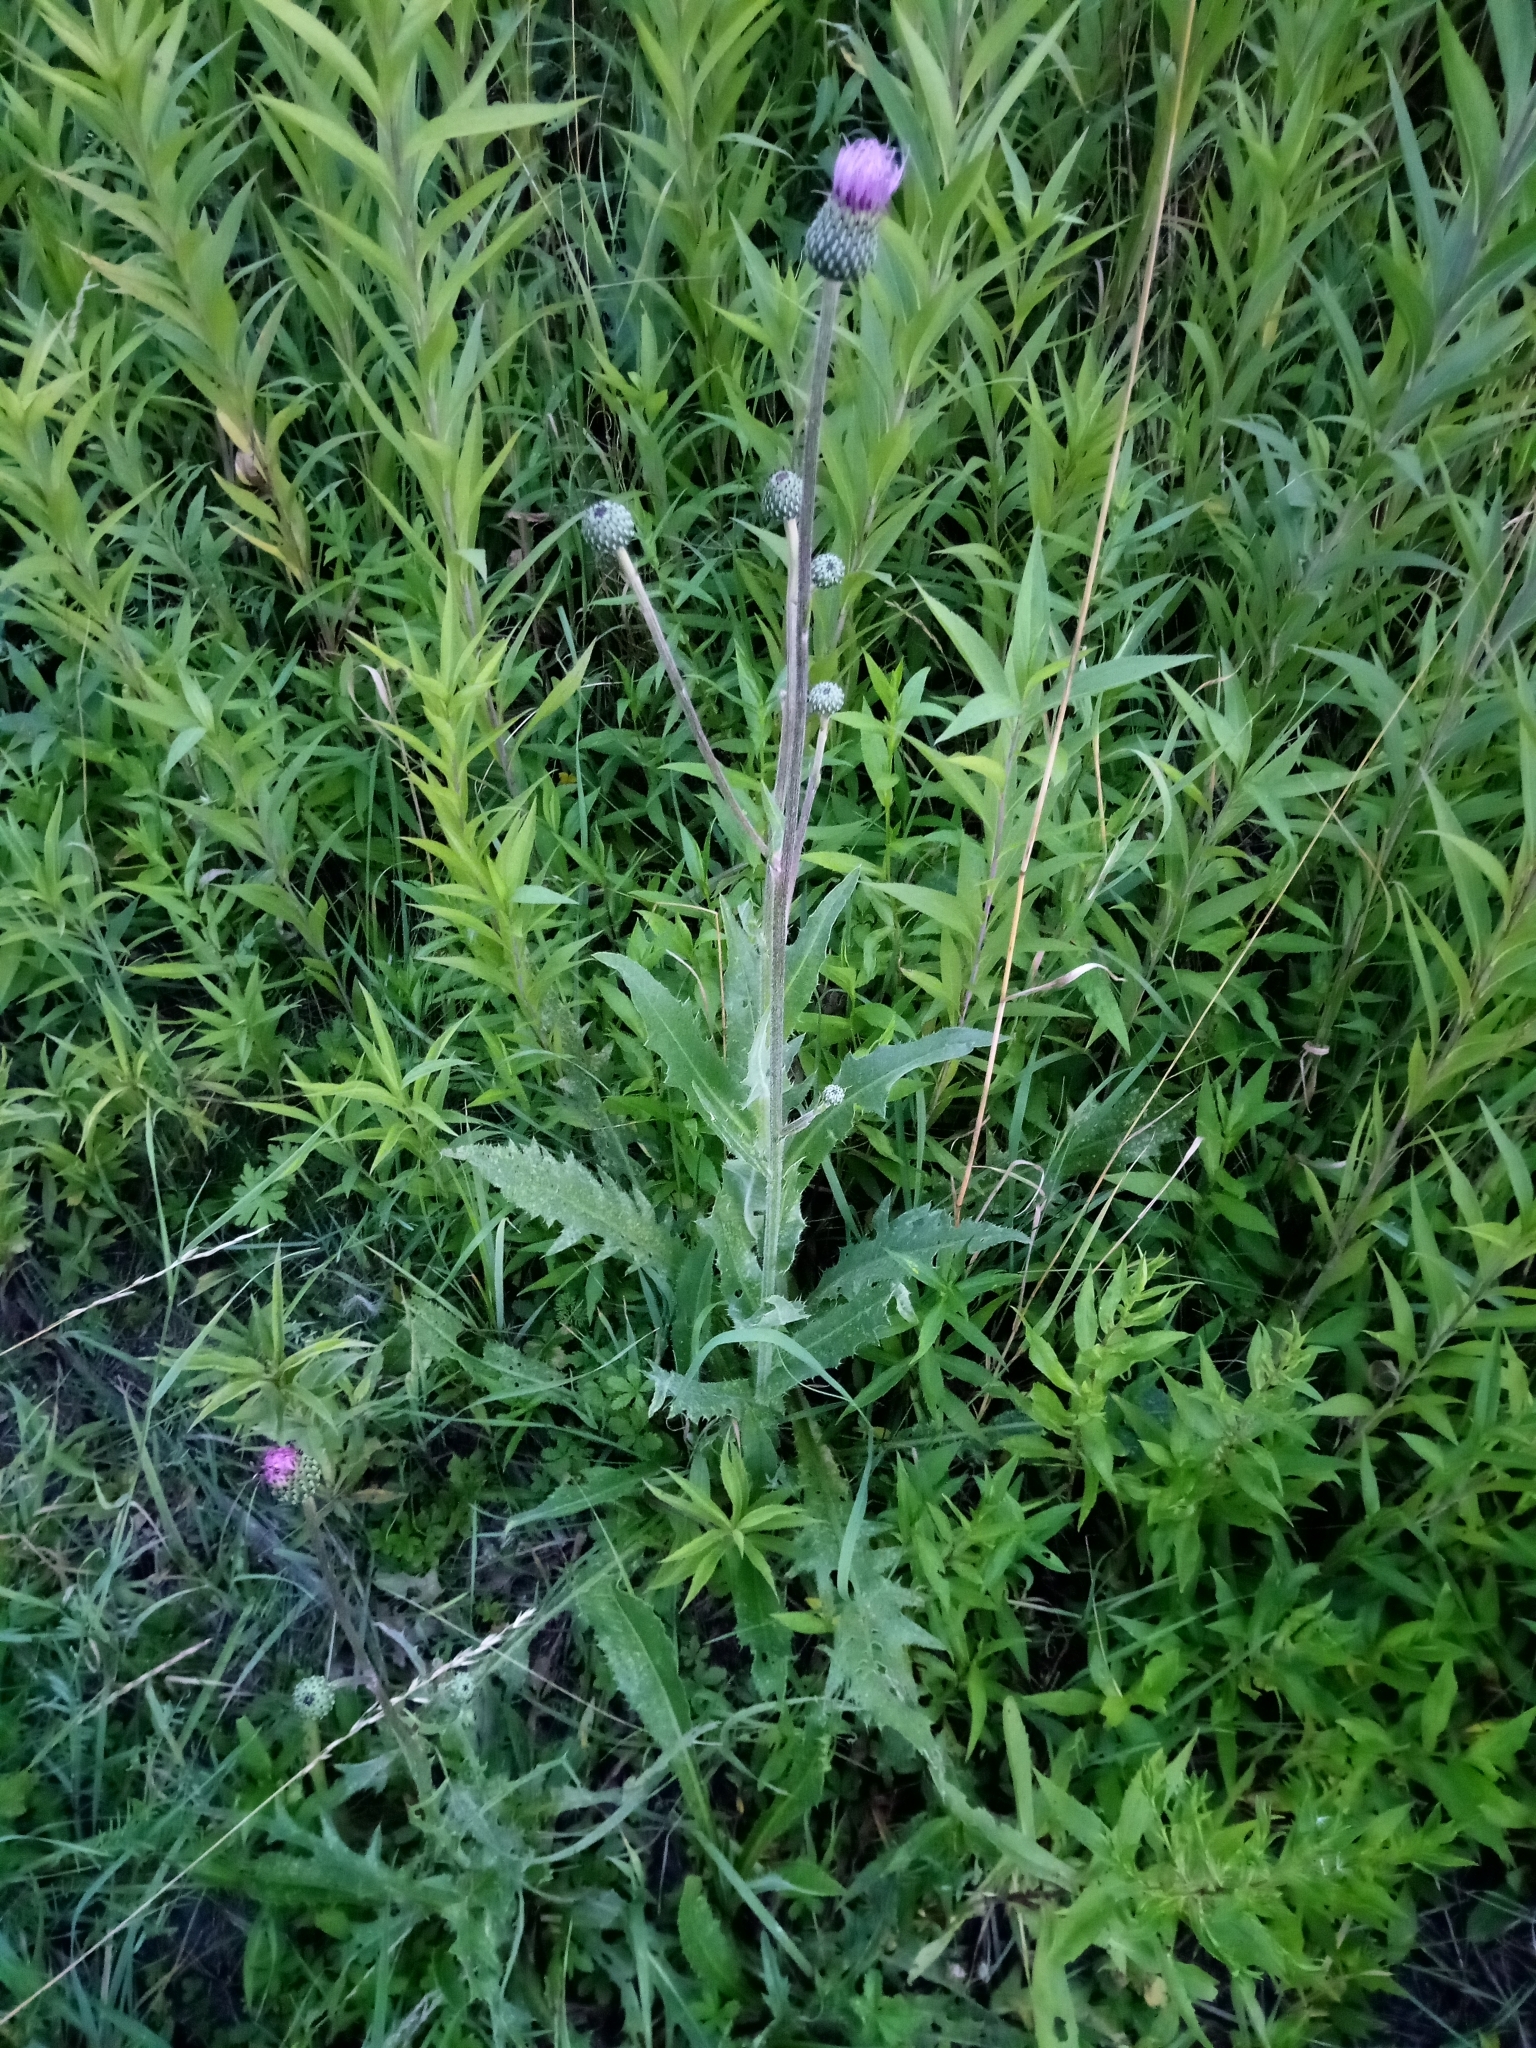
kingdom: Plantae
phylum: Tracheophyta
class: Magnoliopsida
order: Asterales
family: Asteraceae
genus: Cirsium
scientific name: Cirsium canum
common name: Queen anne's thistle
